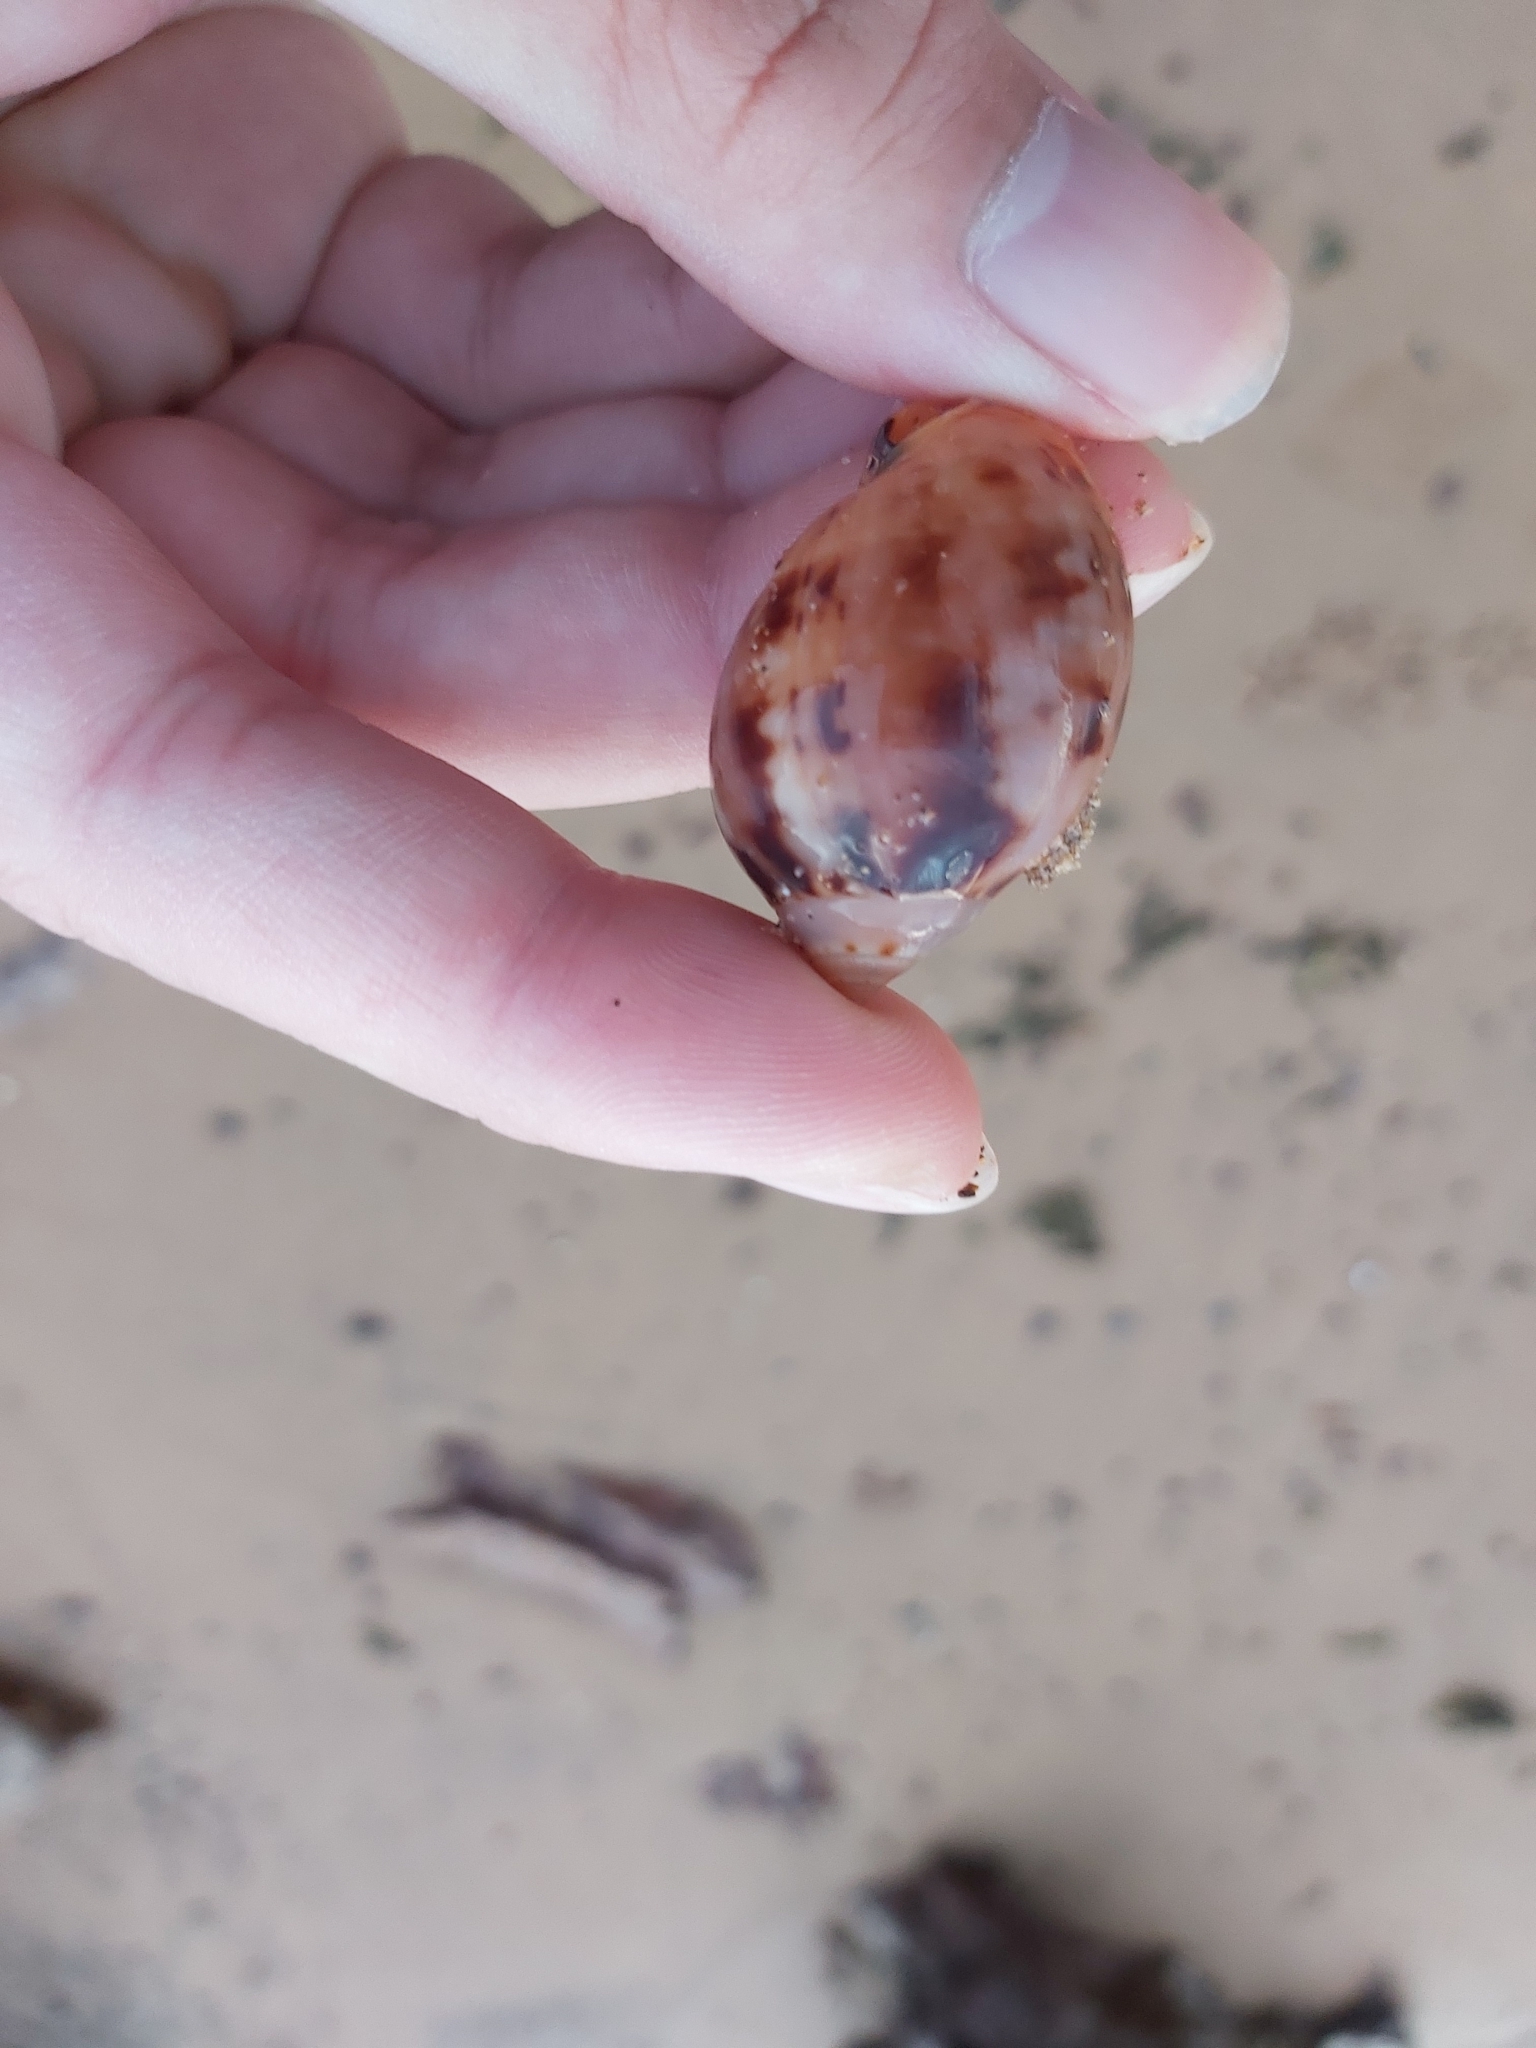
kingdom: Animalia
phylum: Mollusca
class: Gastropoda
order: Littorinimorpha
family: Cassidae
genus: Semicassis
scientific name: Semicassis labiata
